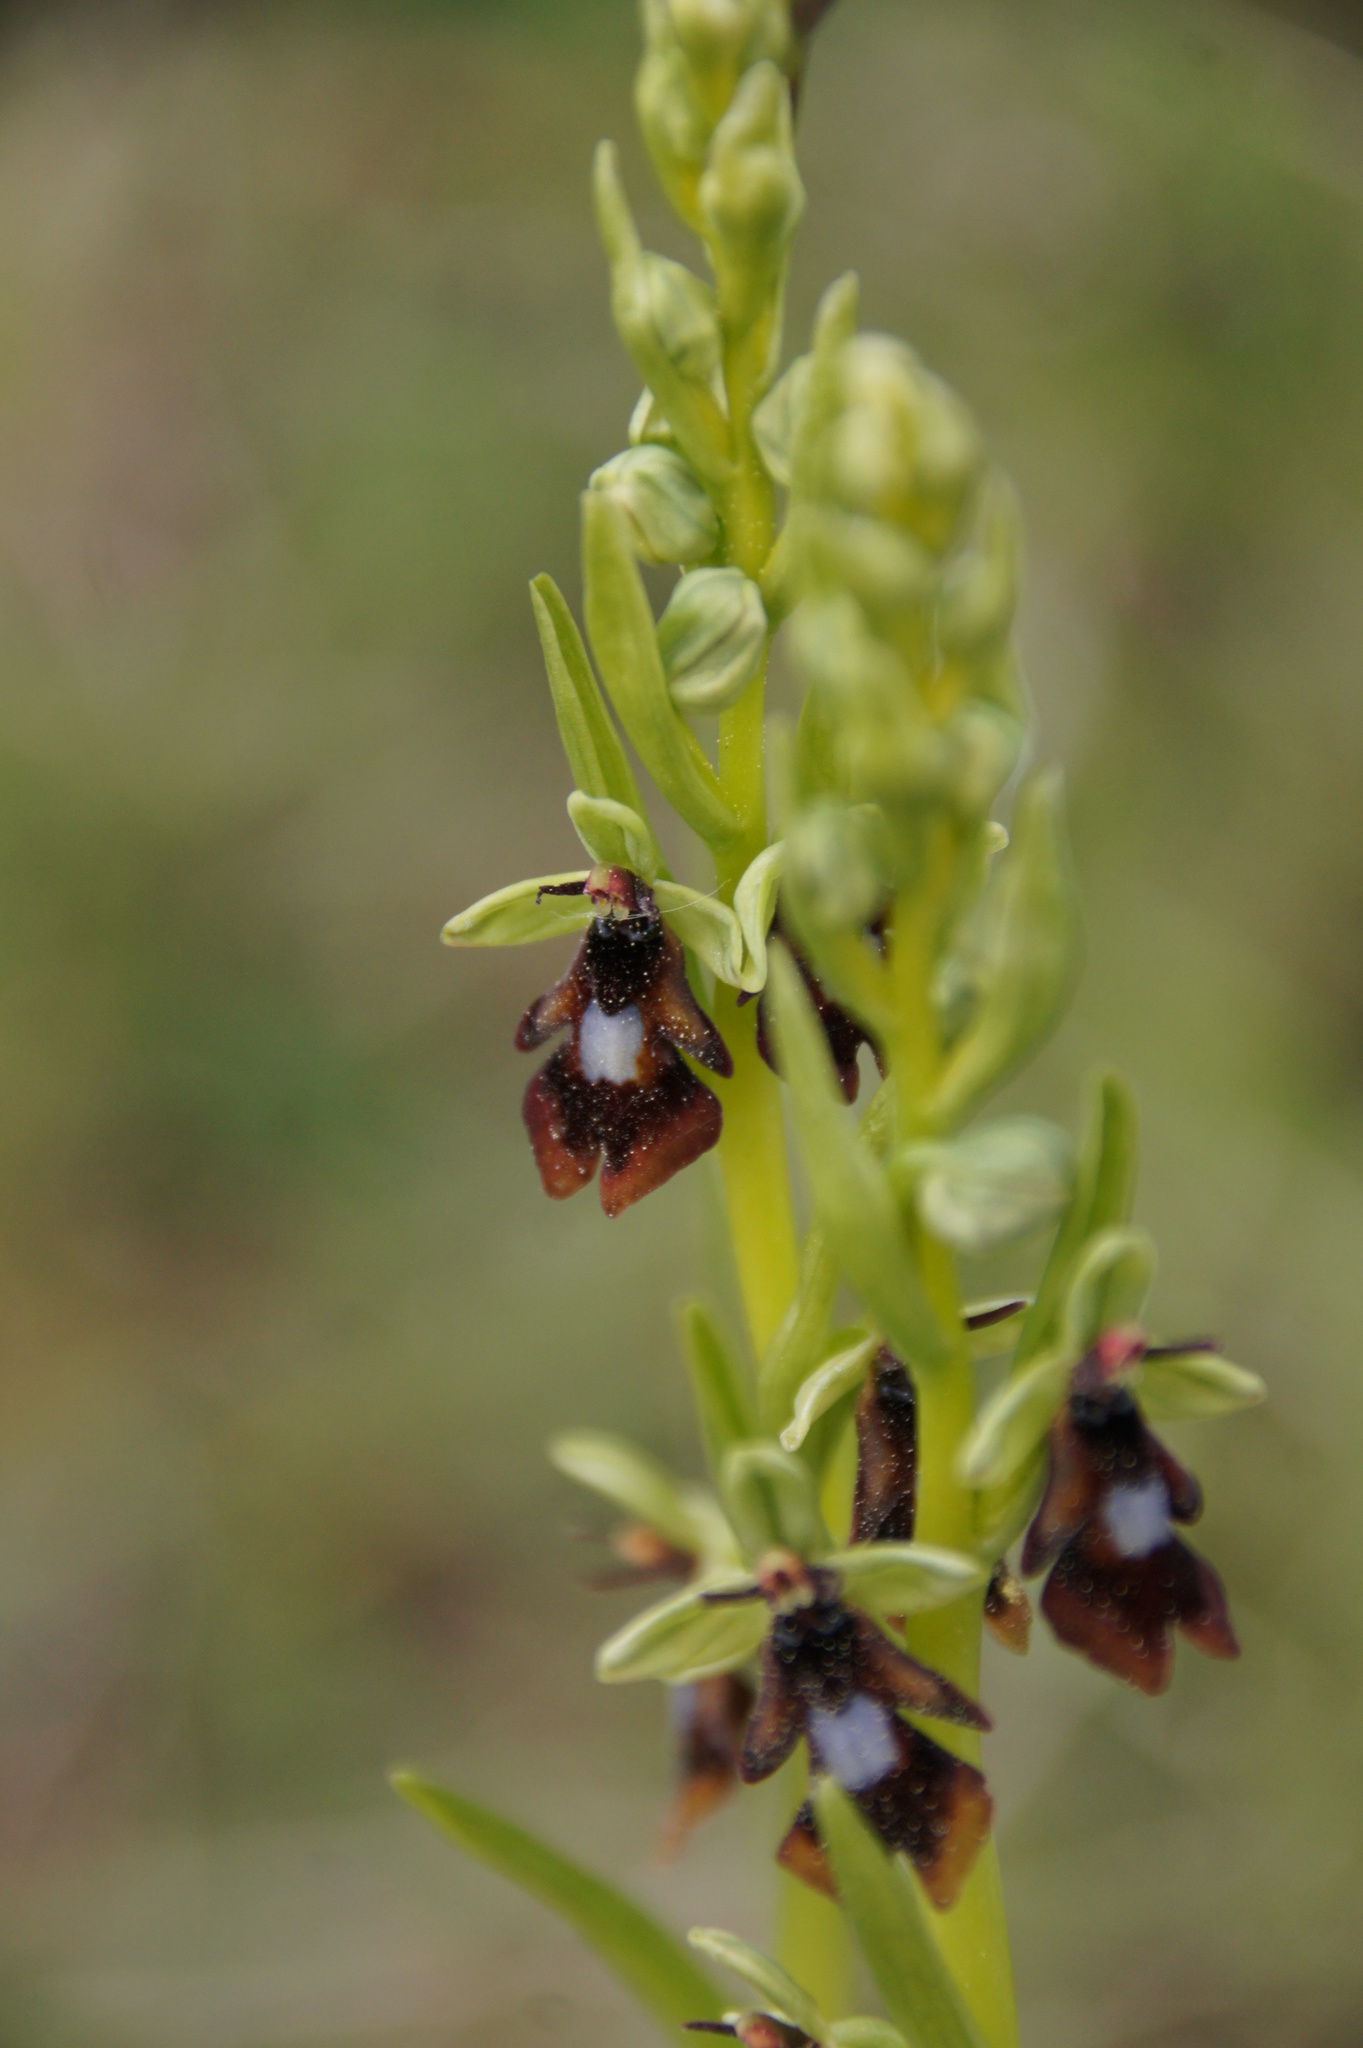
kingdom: Plantae
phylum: Tracheophyta
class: Liliopsida
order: Asparagales
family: Orchidaceae
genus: Ophrys
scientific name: Ophrys insectifera
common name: Fly orchid
